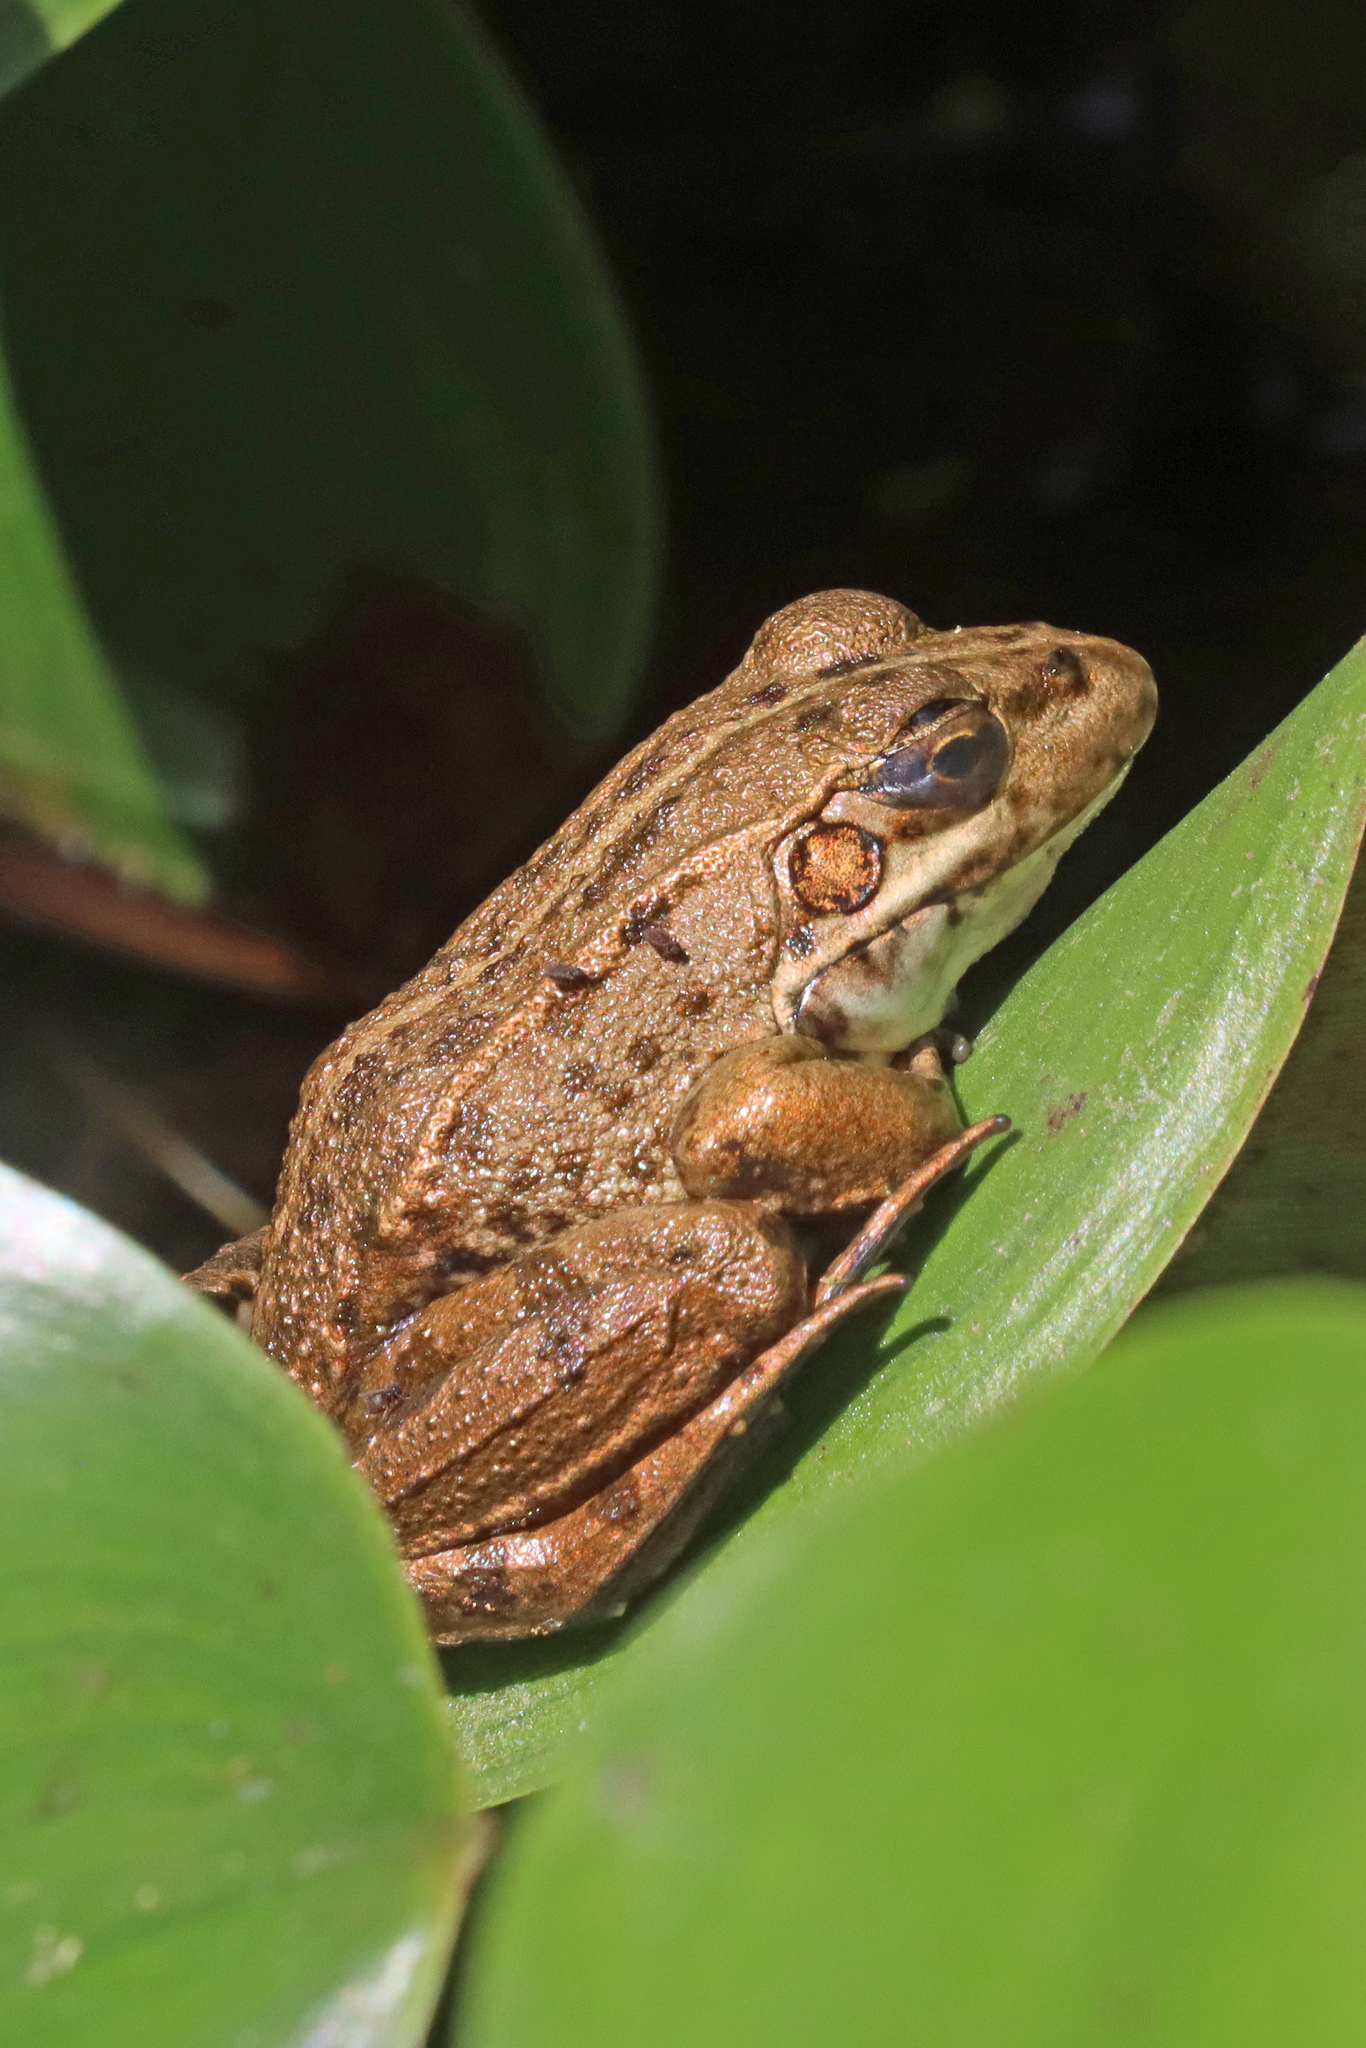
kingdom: Animalia
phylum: Chordata
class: Amphibia
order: Anura
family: Ranidae
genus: Pelophylax
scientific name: Pelophylax perezi
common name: Perez's frog
